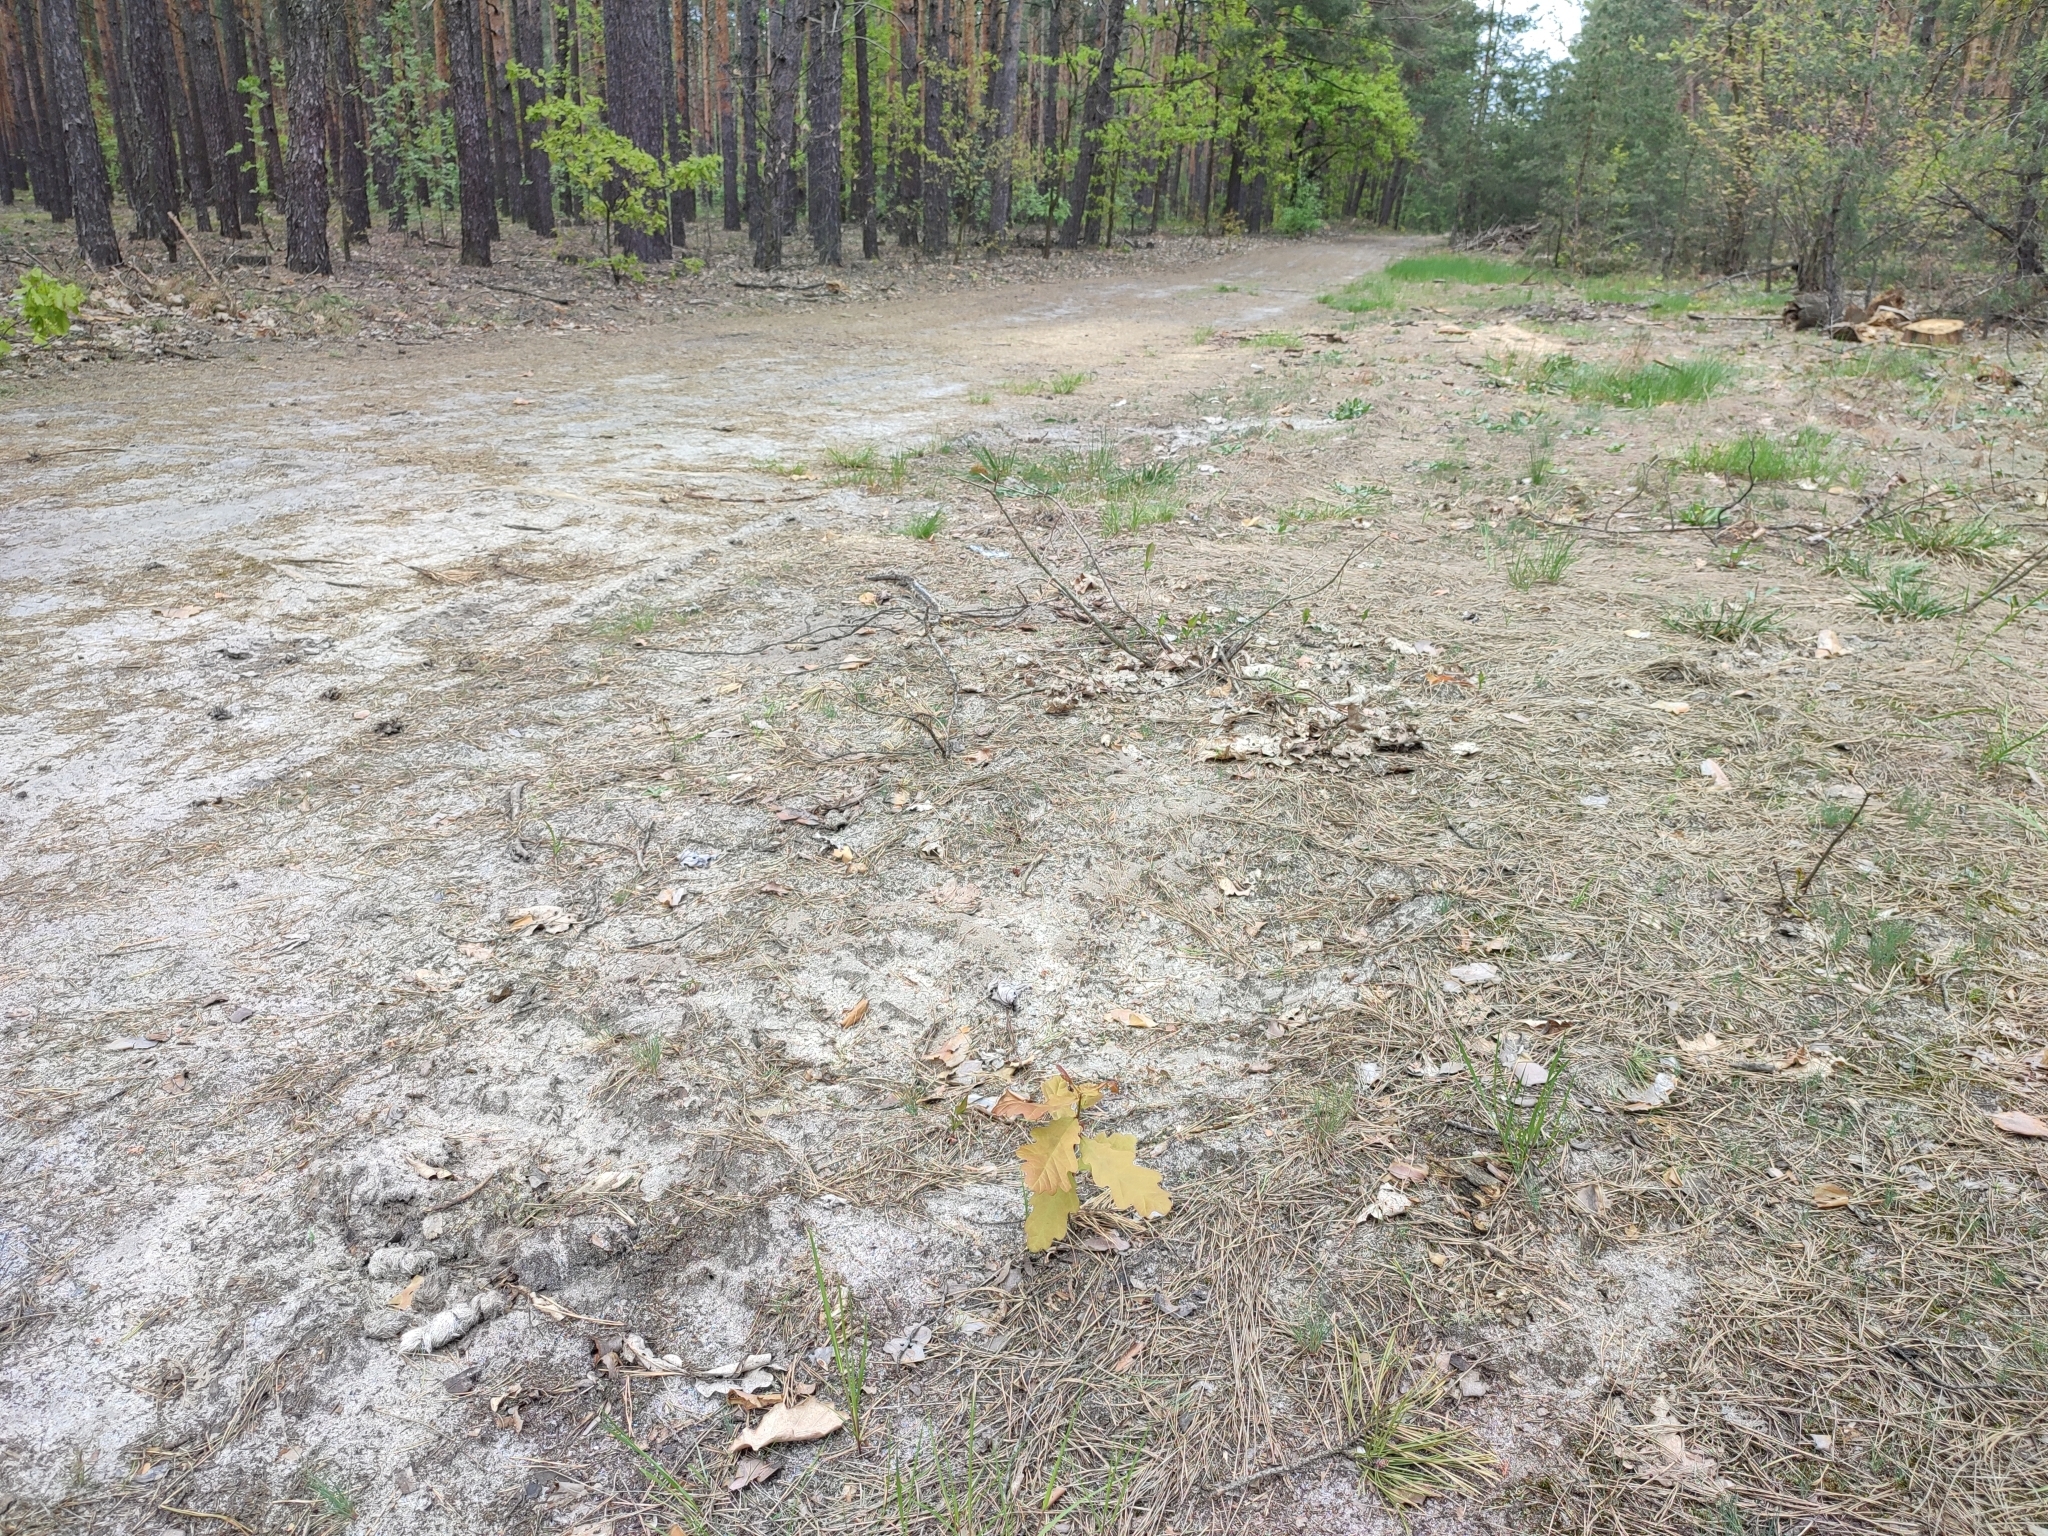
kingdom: Plantae
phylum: Tracheophyta
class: Magnoliopsida
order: Fagales
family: Fagaceae
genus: Quercus
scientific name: Quercus robur
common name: Pedunculate oak
